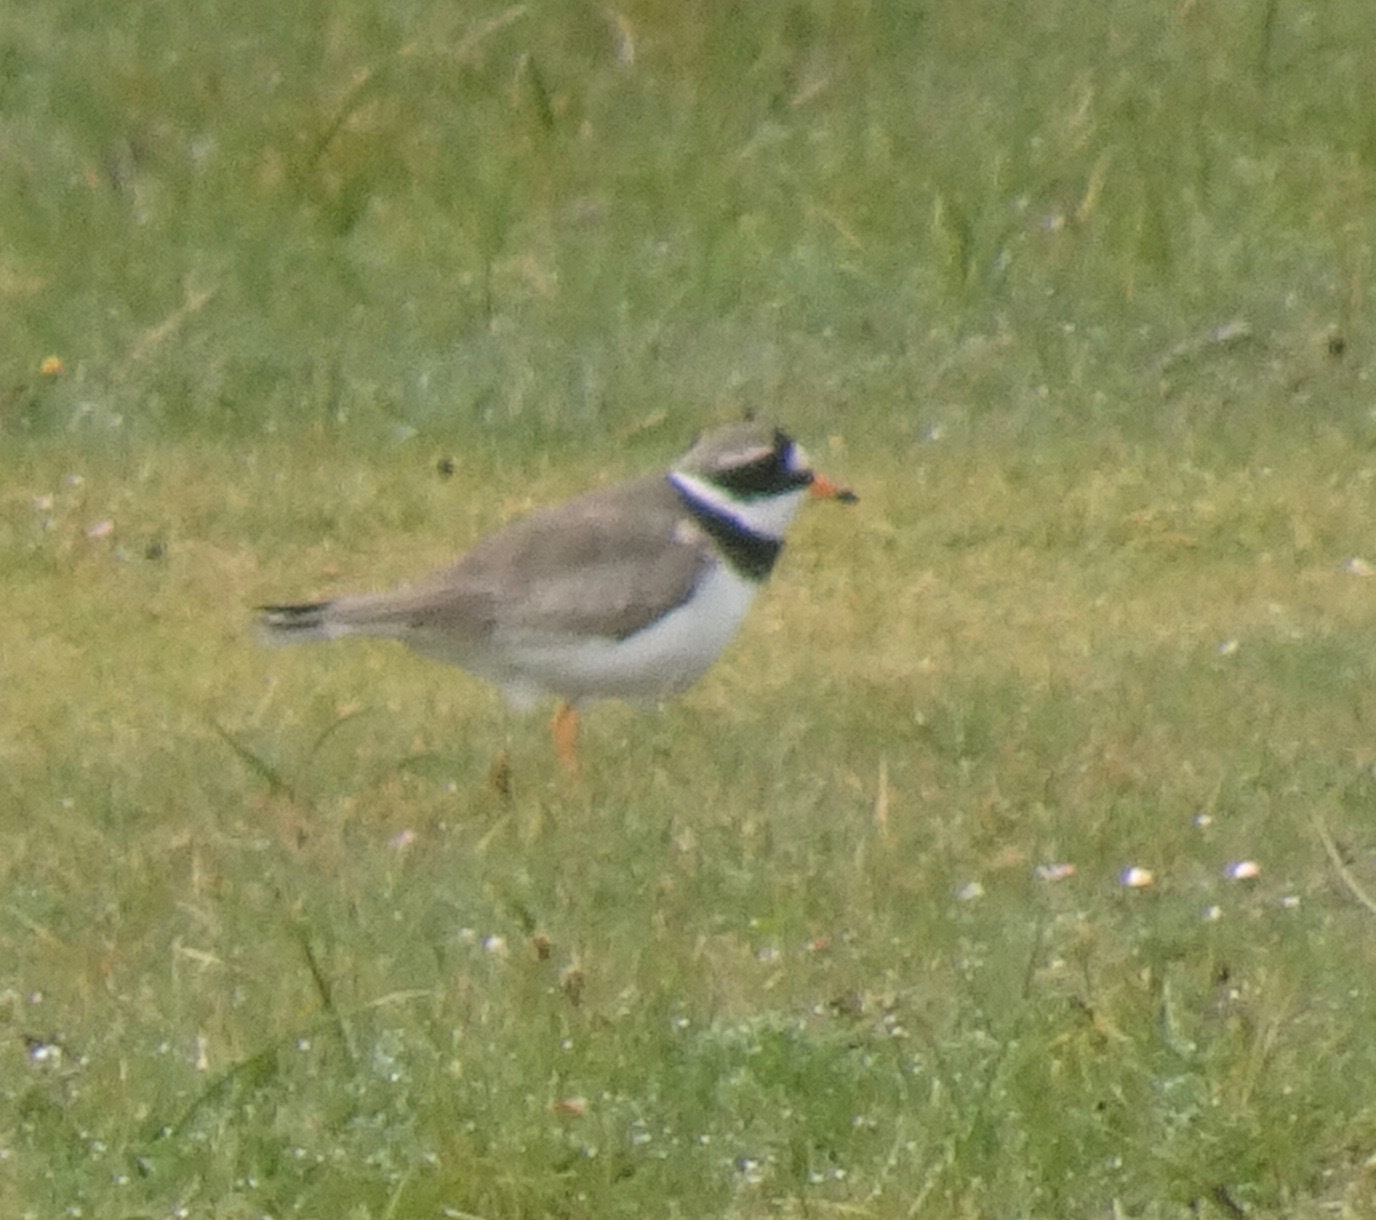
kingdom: Animalia
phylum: Chordata
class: Aves
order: Charadriiformes
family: Charadriidae
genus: Charadrius
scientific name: Charadrius hiaticula
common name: Common ringed plover
